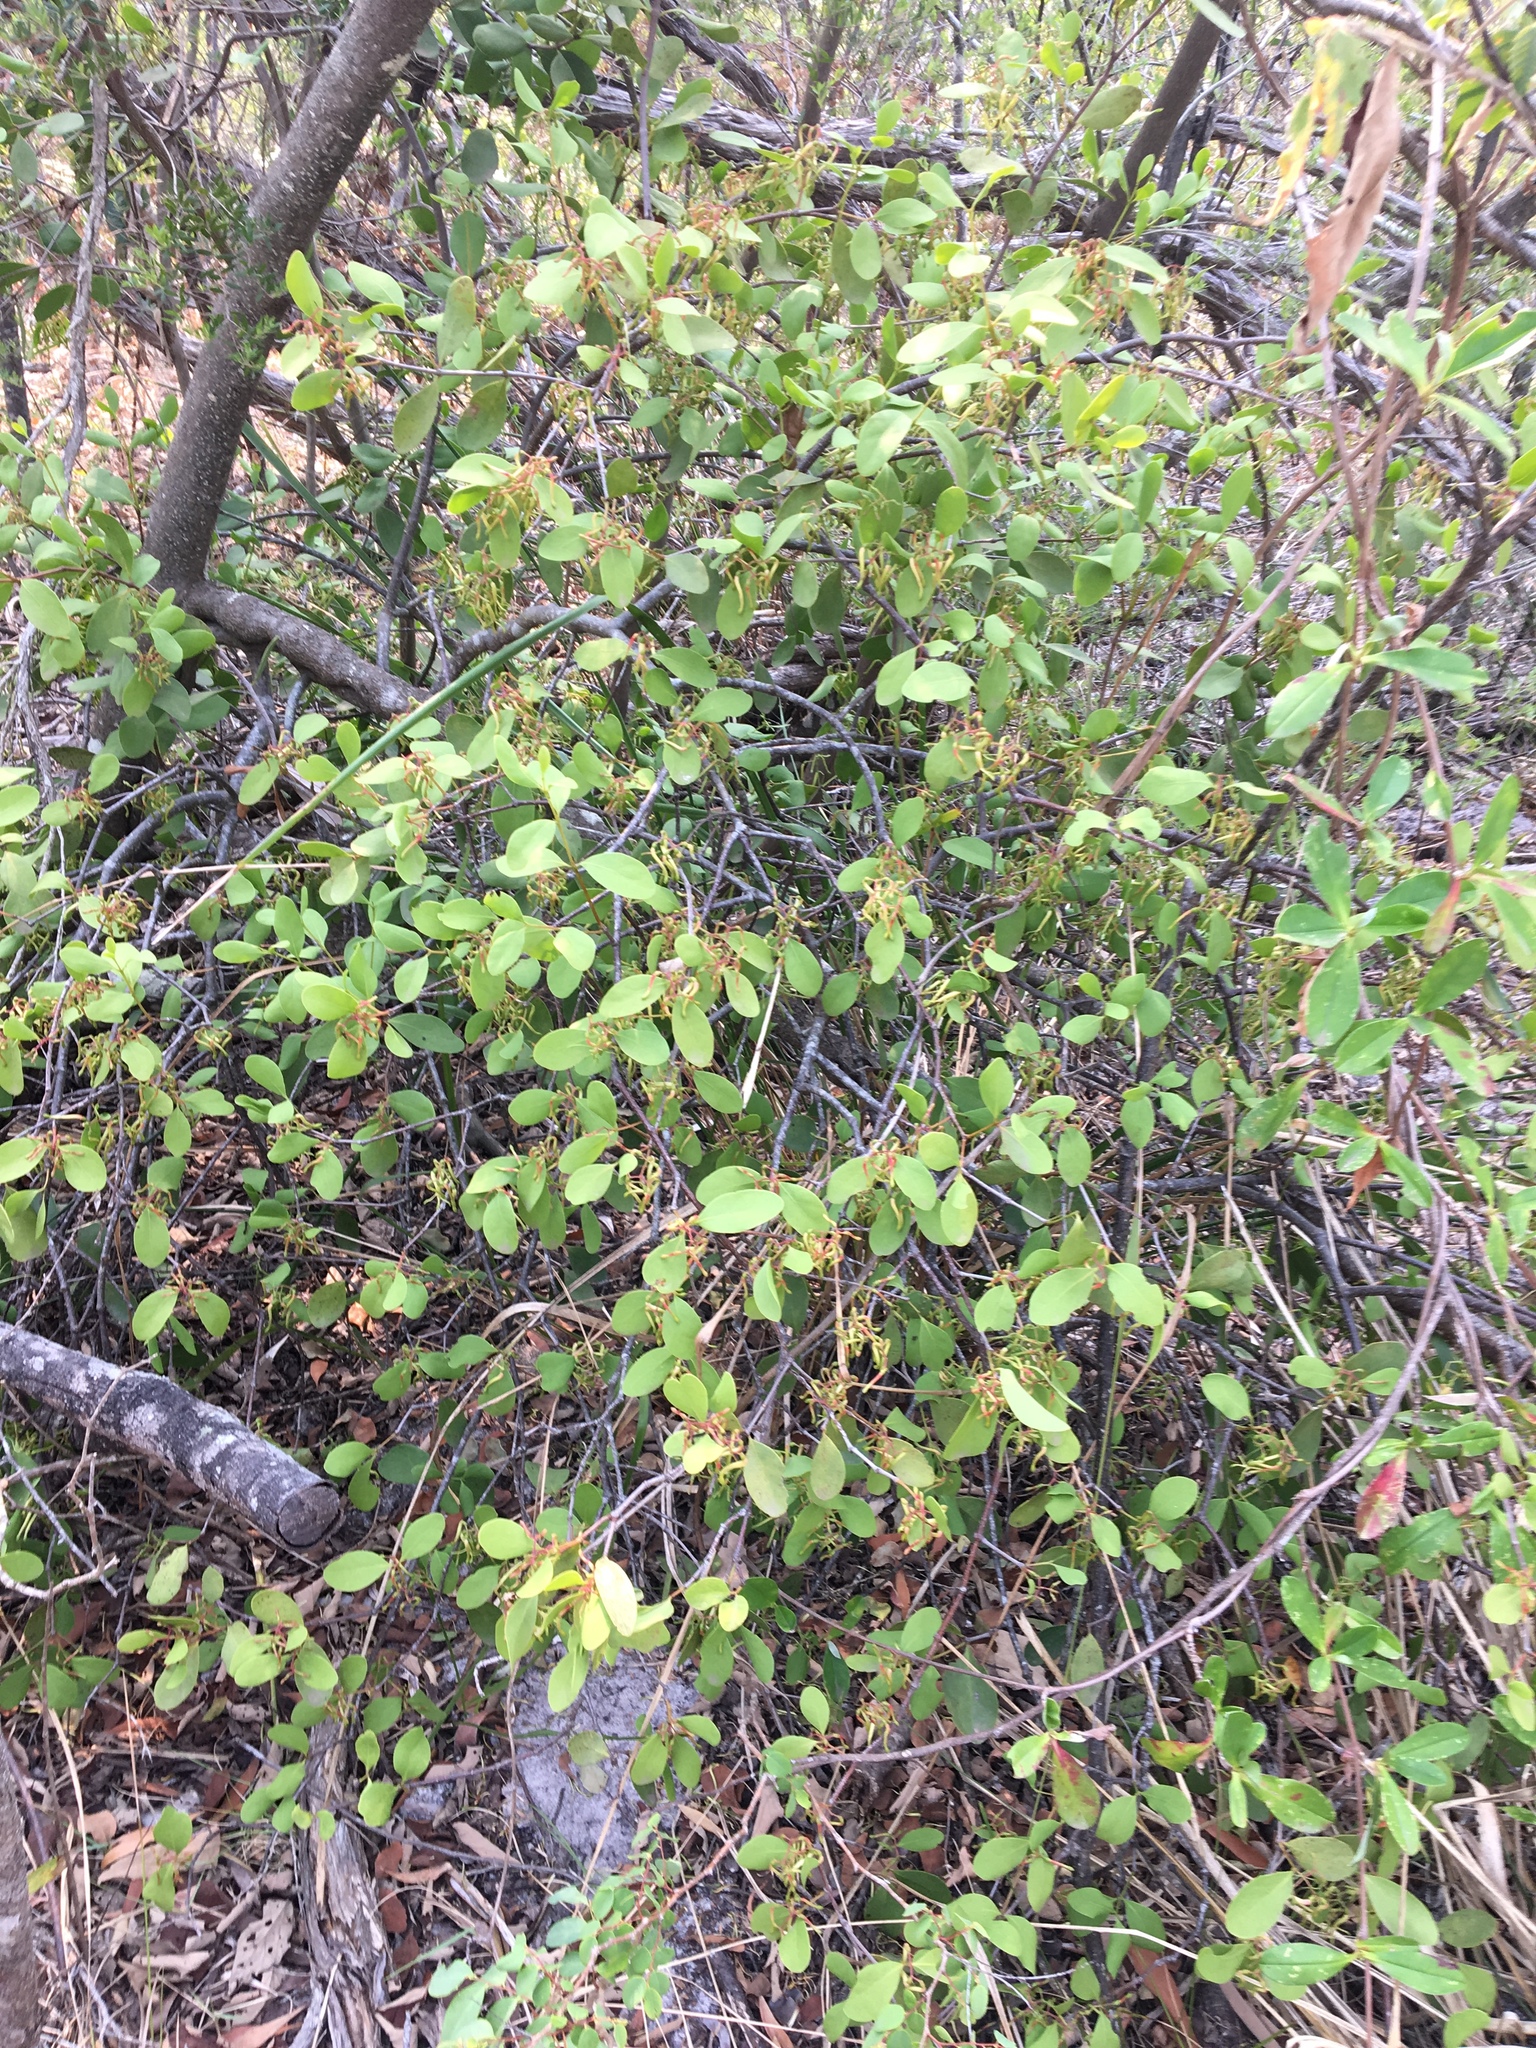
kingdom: Plantae
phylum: Tracheophyta
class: Magnoliopsida
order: Santalales
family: Loranthaceae
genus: Muellerina
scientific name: Muellerina celastroides
